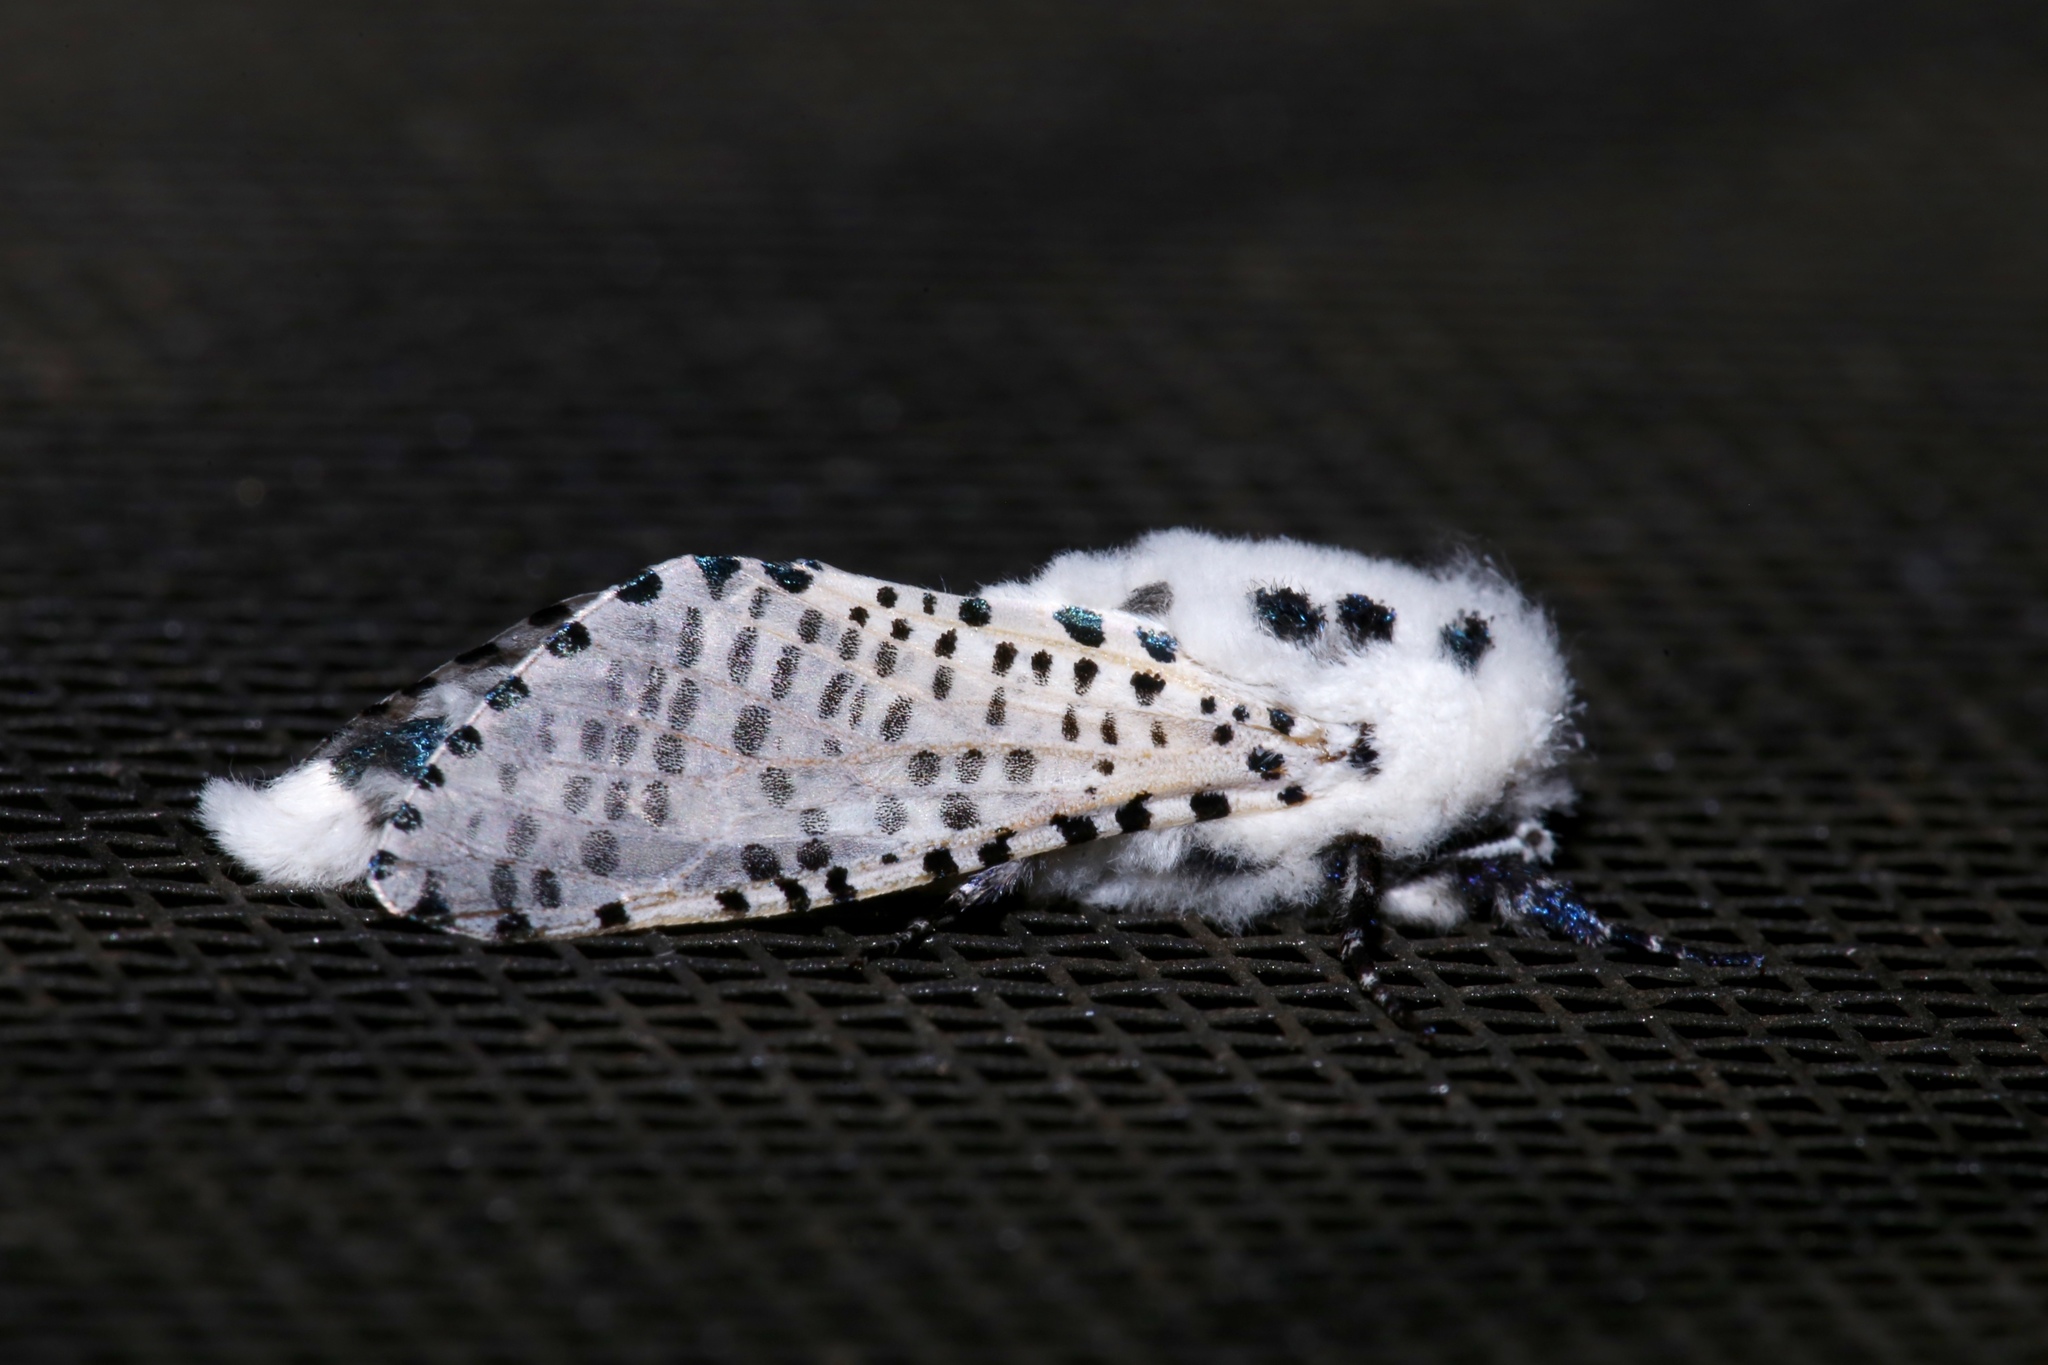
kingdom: Animalia
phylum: Arthropoda
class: Insecta
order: Lepidoptera
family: Cossidae
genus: Zeuzera
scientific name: Zeuzera pyrina
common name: Leopard moth
